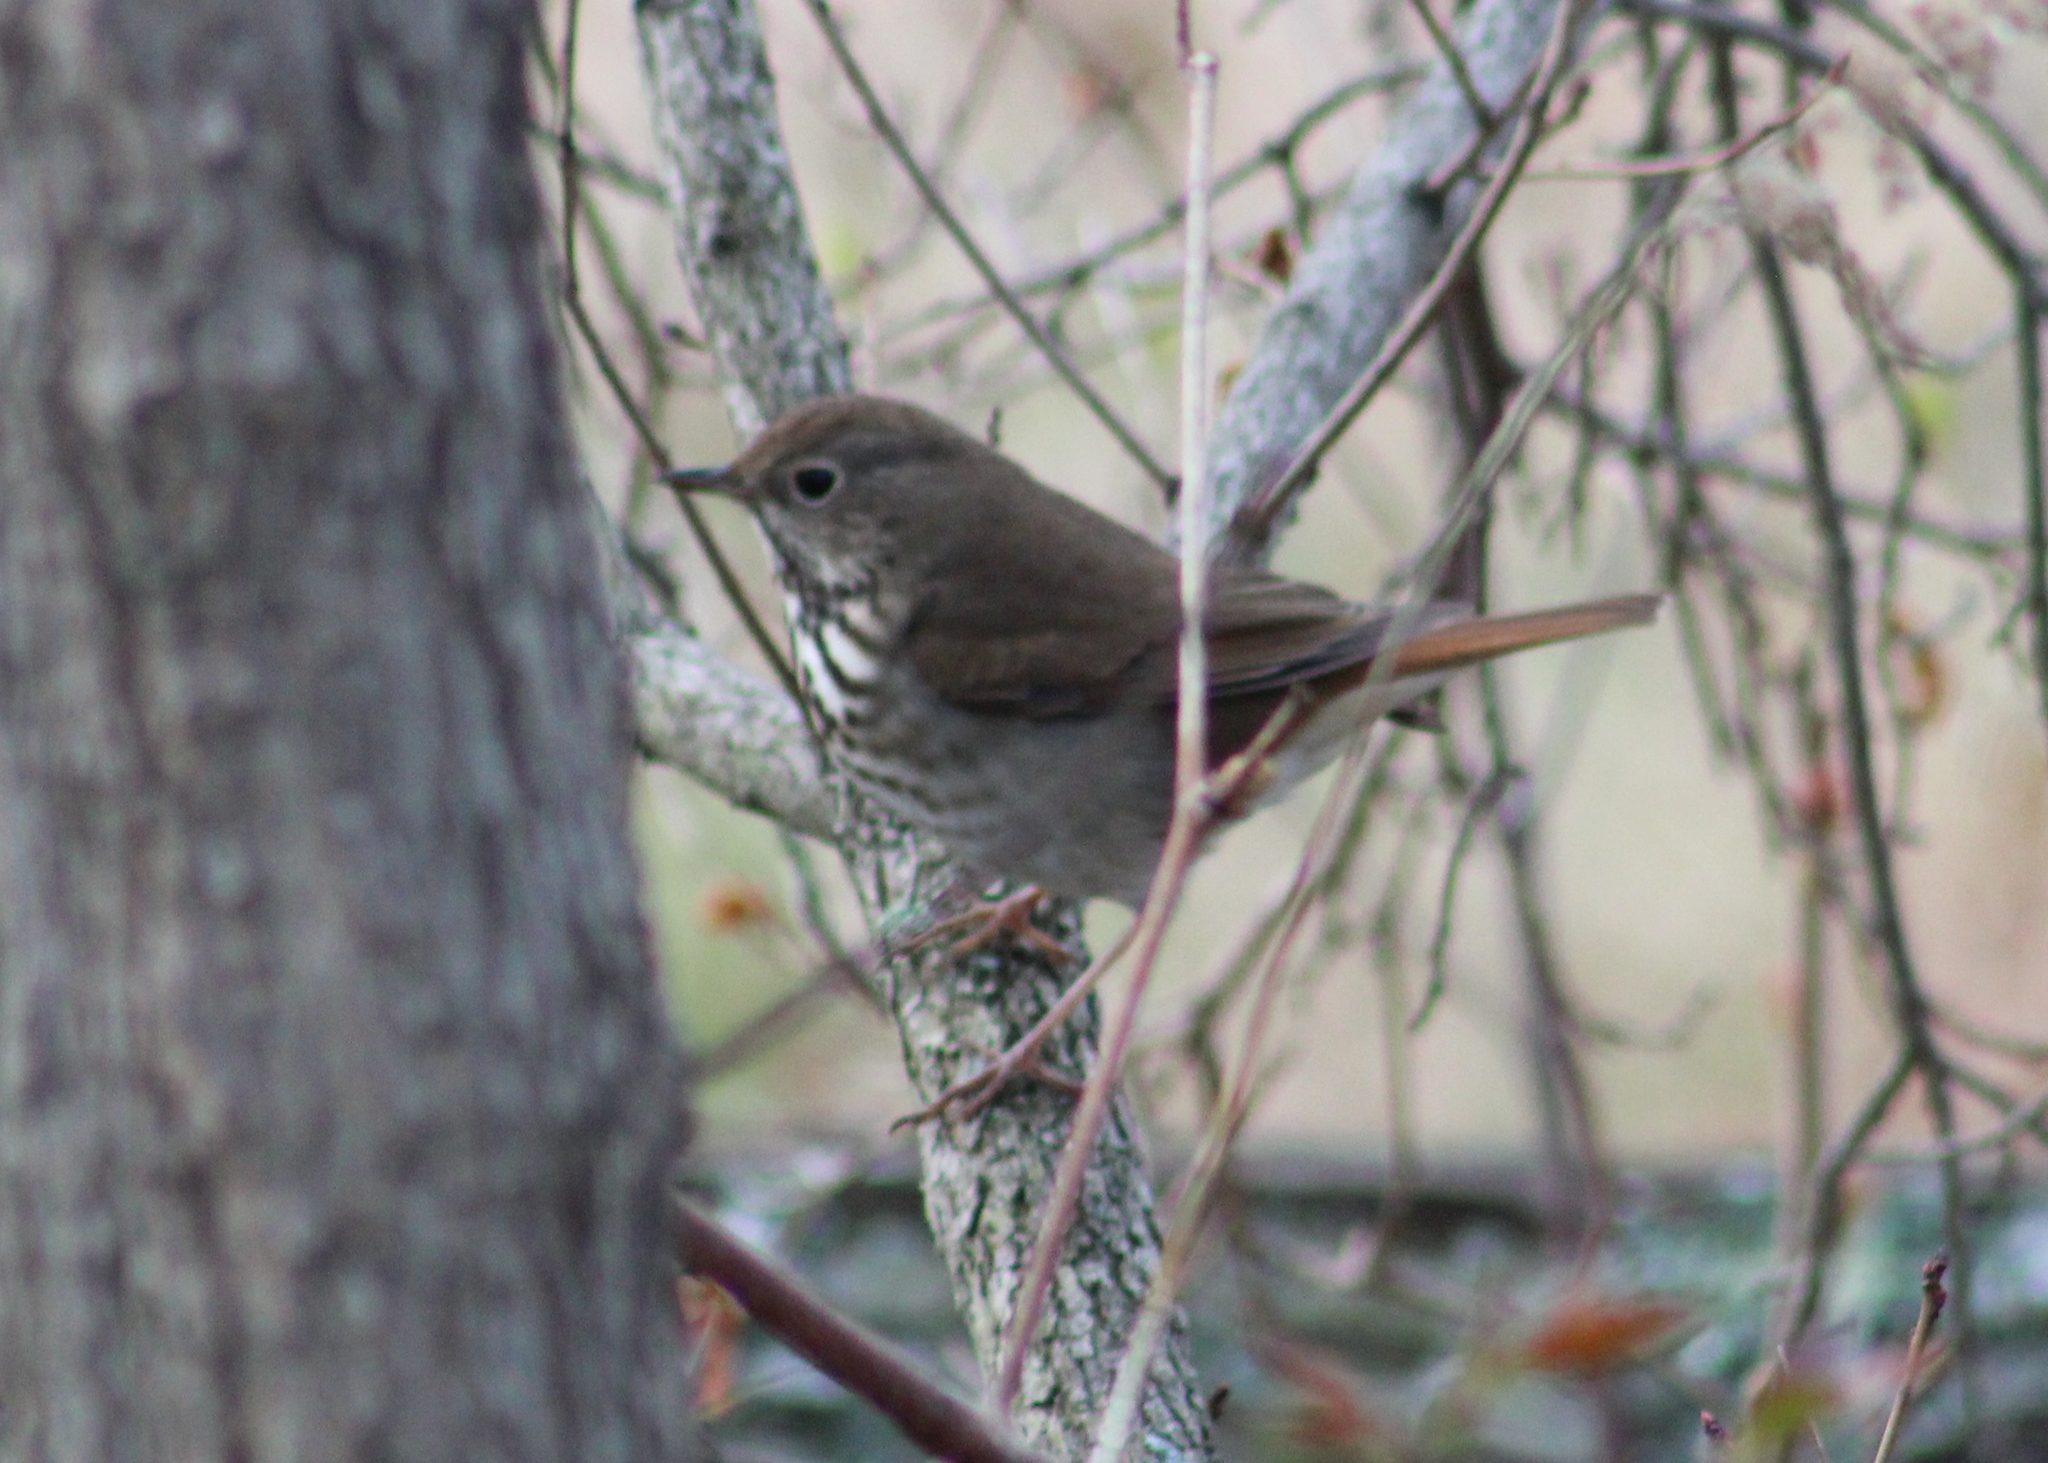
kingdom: Animalia
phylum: Chordata
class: Aves
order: Passeriformes
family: Turdidae
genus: Catharus
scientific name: Catharus guttatus
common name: Hermit thrush
